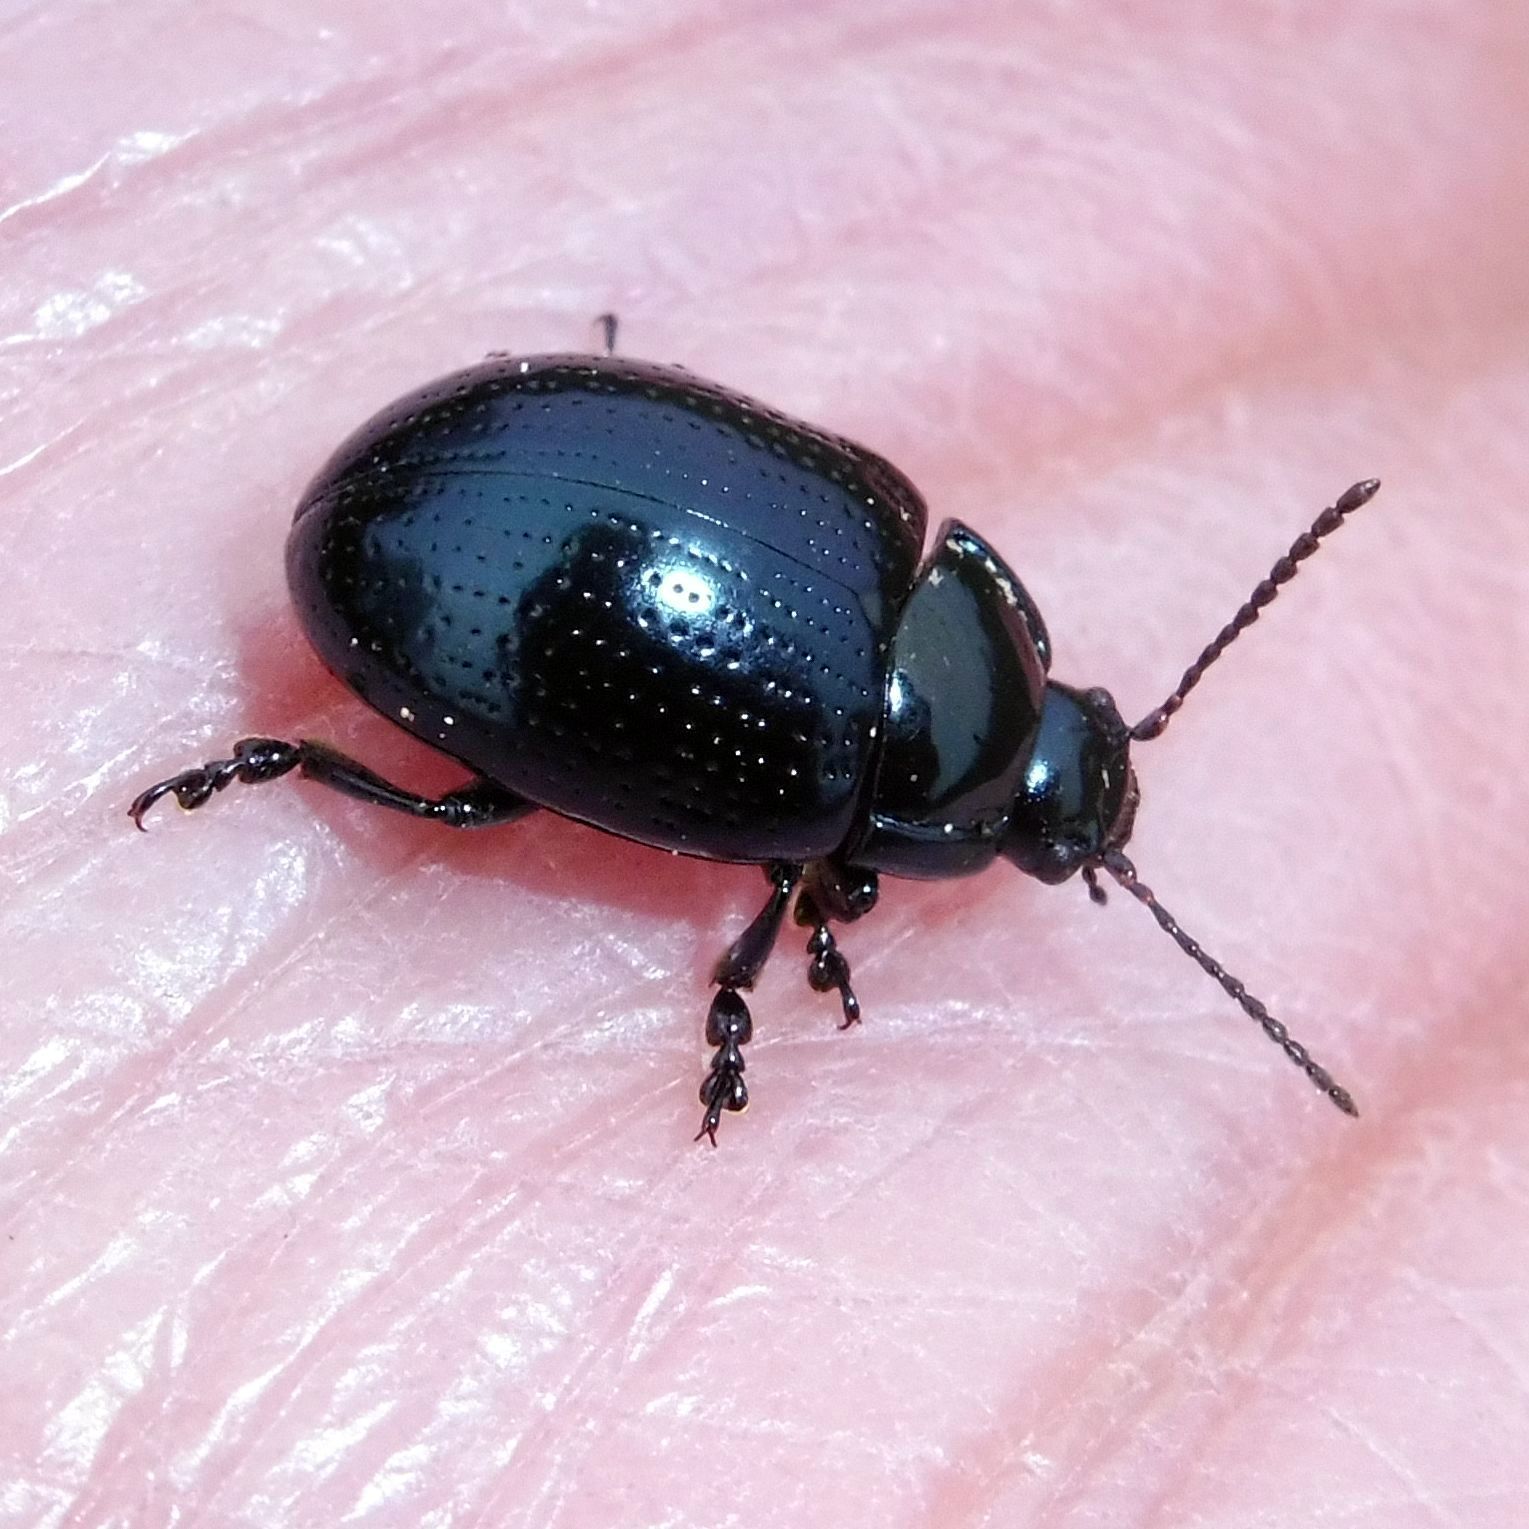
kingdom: Animalia
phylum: Arthropoda
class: Insecta
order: Coleoptera
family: Chrysomelidae
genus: Chrysolina
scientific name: Chrysolina oricalcia
